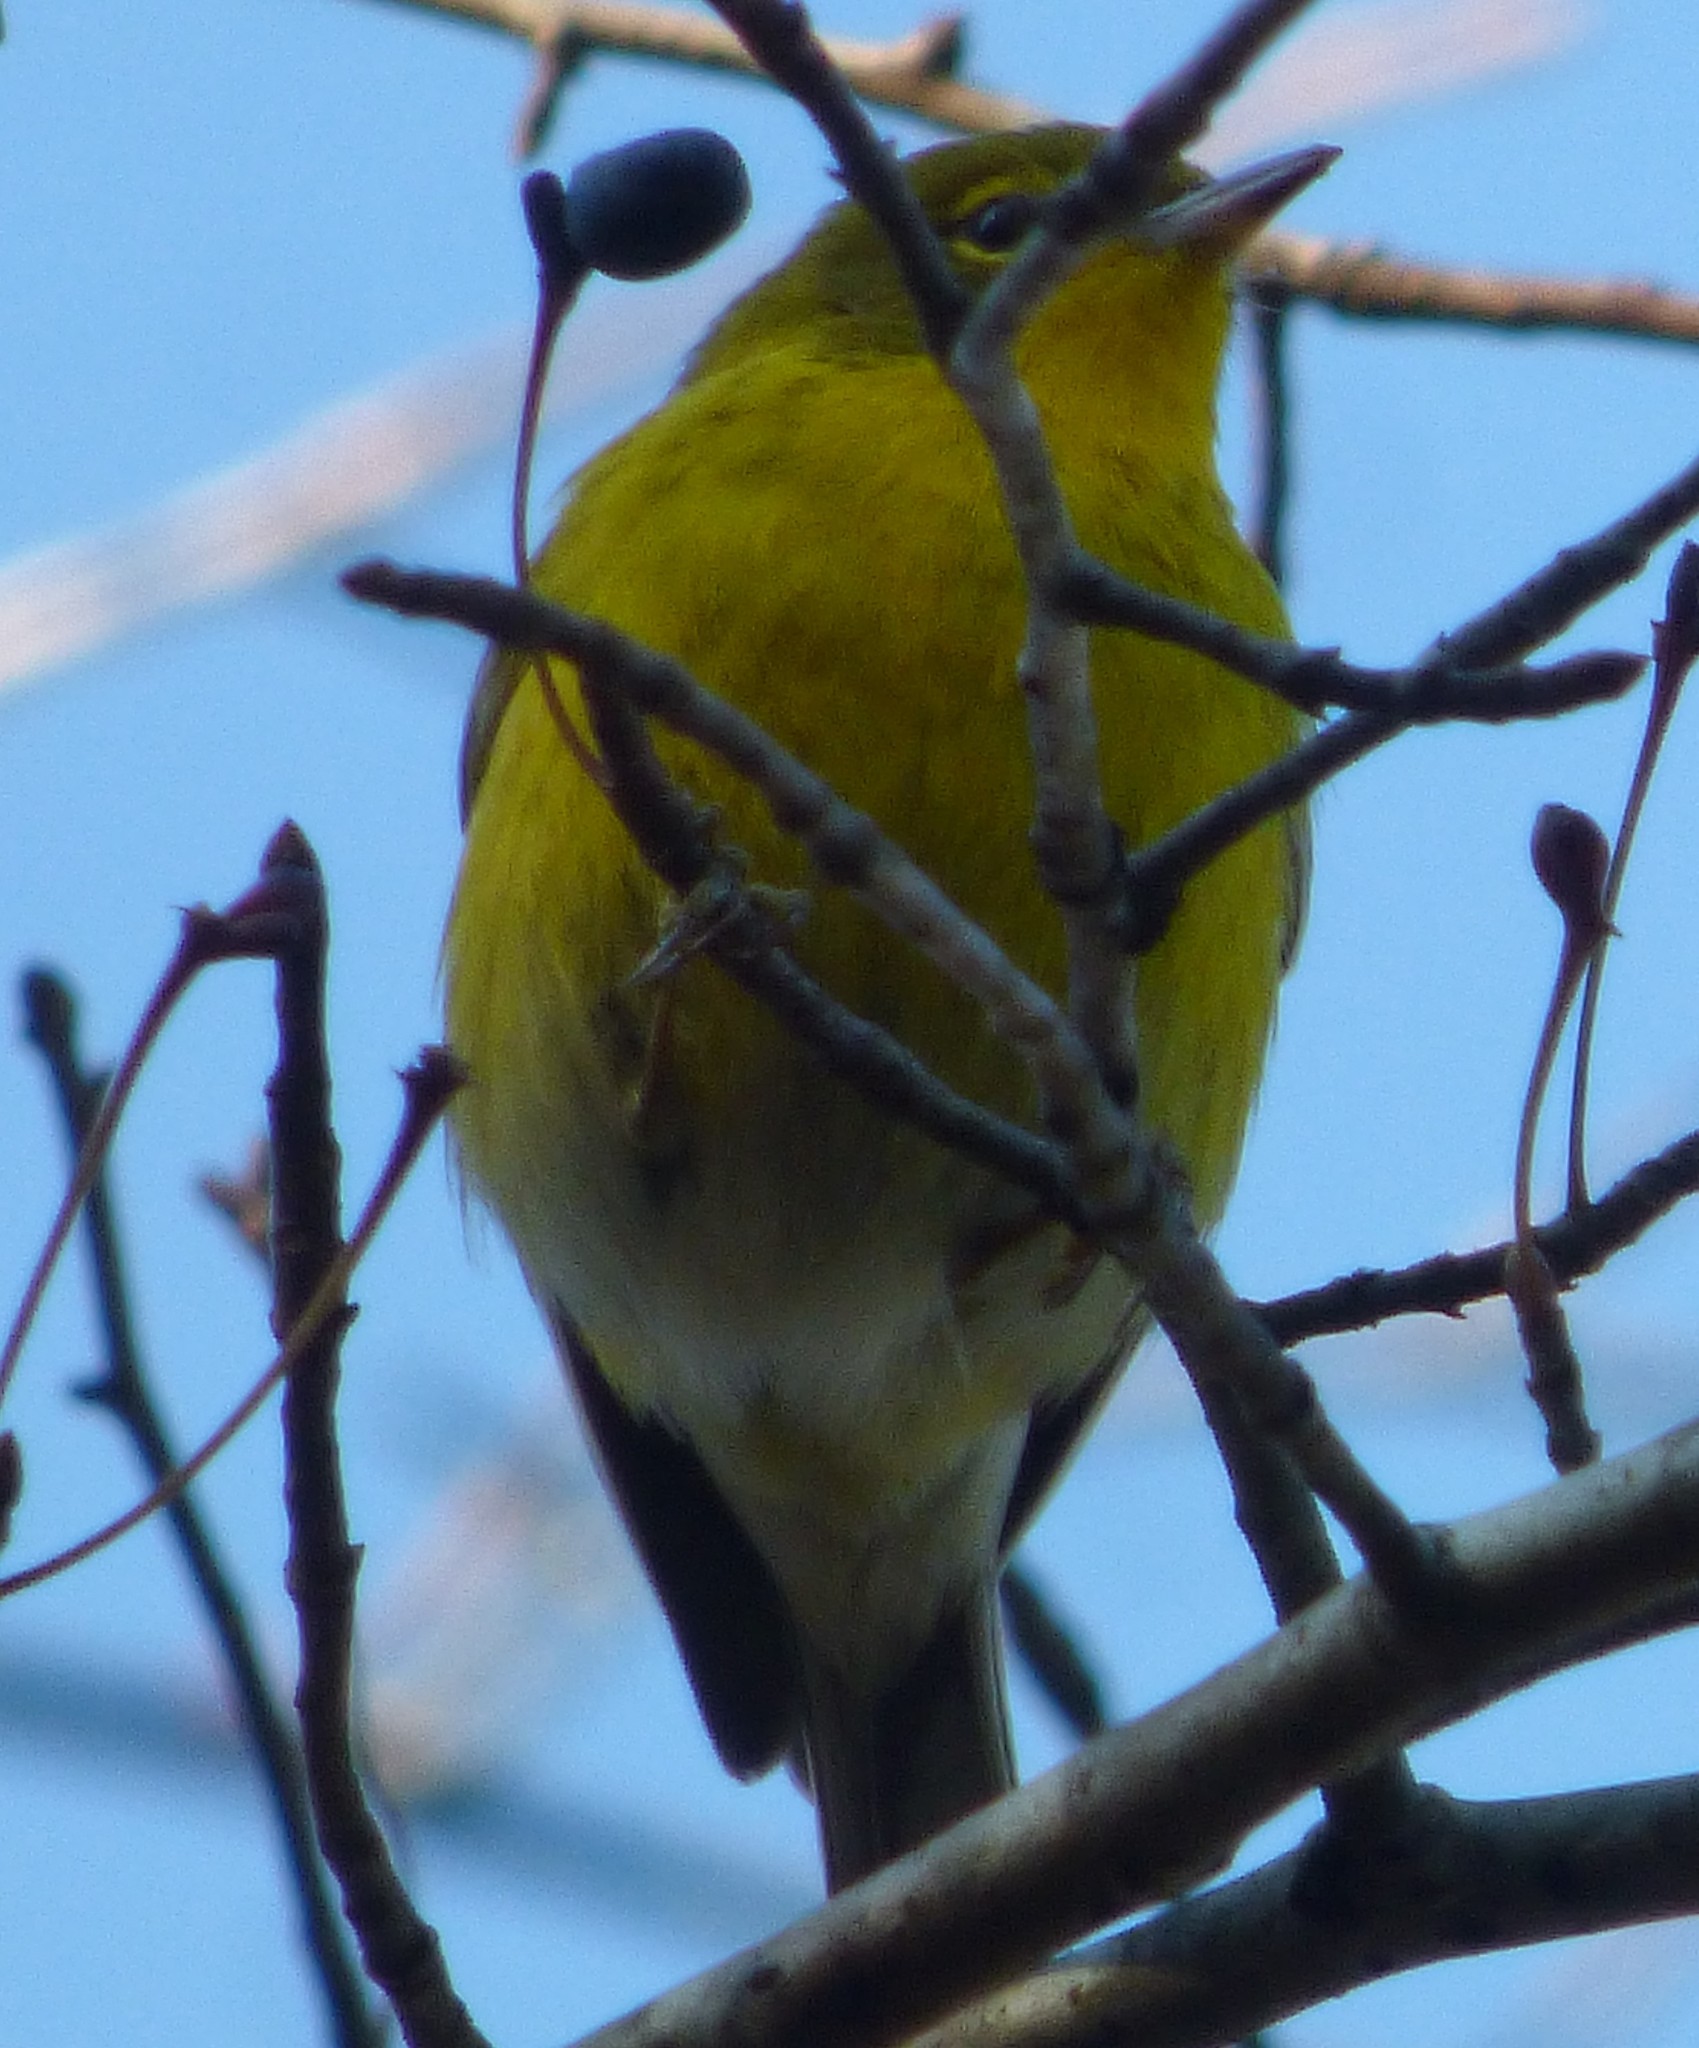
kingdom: Animalia
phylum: Chordata
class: Aves
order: Passeriformes
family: Parulidae
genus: Setophaga
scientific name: Setophaga pinus
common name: Pine warbler
